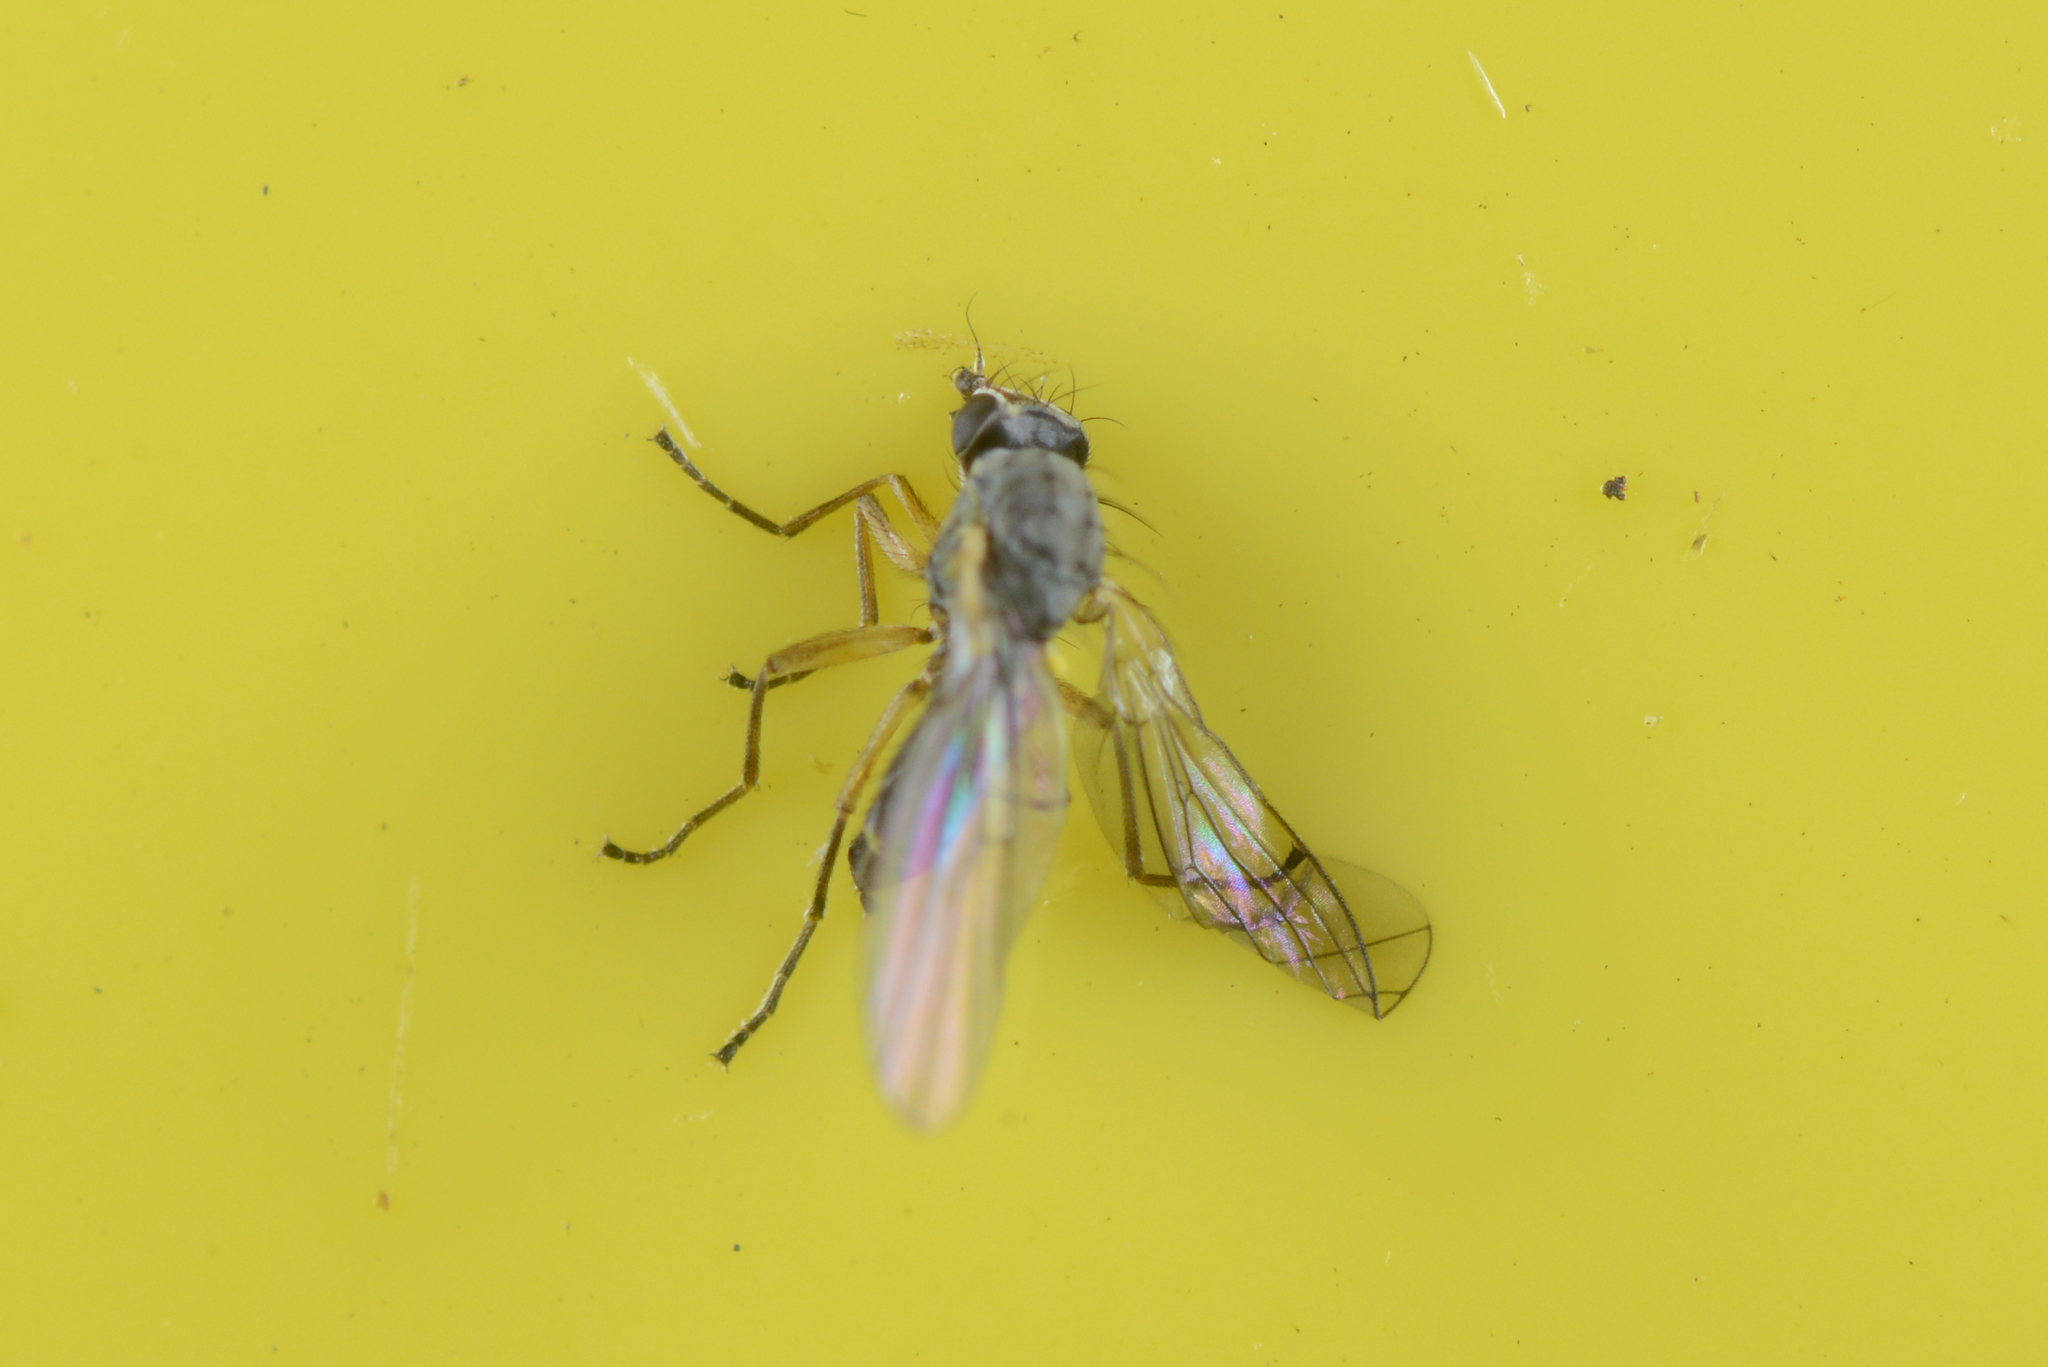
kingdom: Animalia
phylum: Arthropoda
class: Insecta
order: Diptera
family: Agromyzidae
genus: Cerodontha
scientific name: Cerodontha australis
